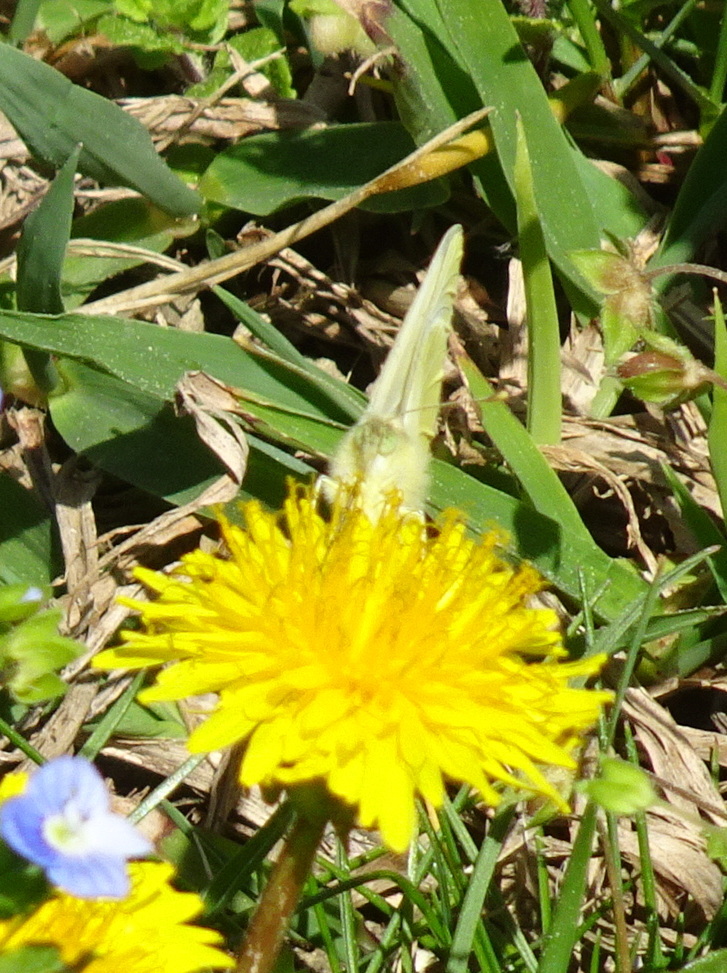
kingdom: Animalia
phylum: Arthropoda
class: Insecta
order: Lepidoptera
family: Pieridae
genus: Pieris
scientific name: Pieris rapae
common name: Small white
